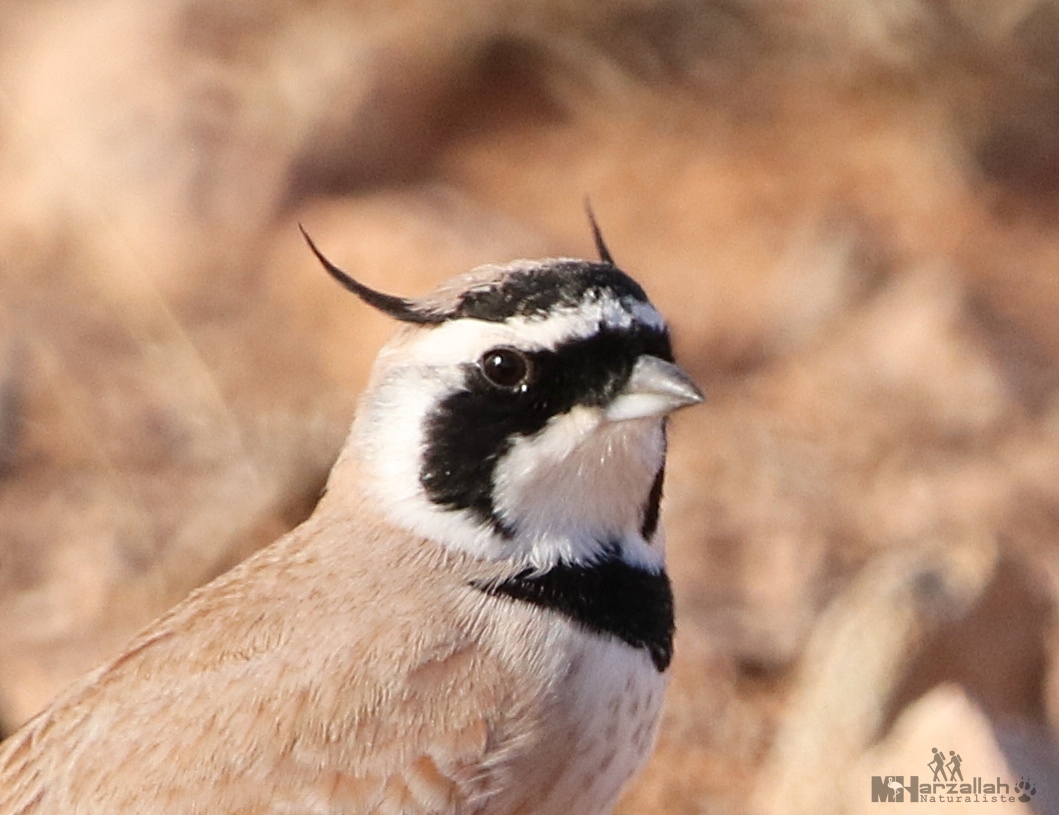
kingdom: Animalia
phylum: Chordata
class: Aves
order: Passeriformes
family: Alaudidae
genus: Eremophila
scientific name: Eremophila bilopha
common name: Temminck's lark
